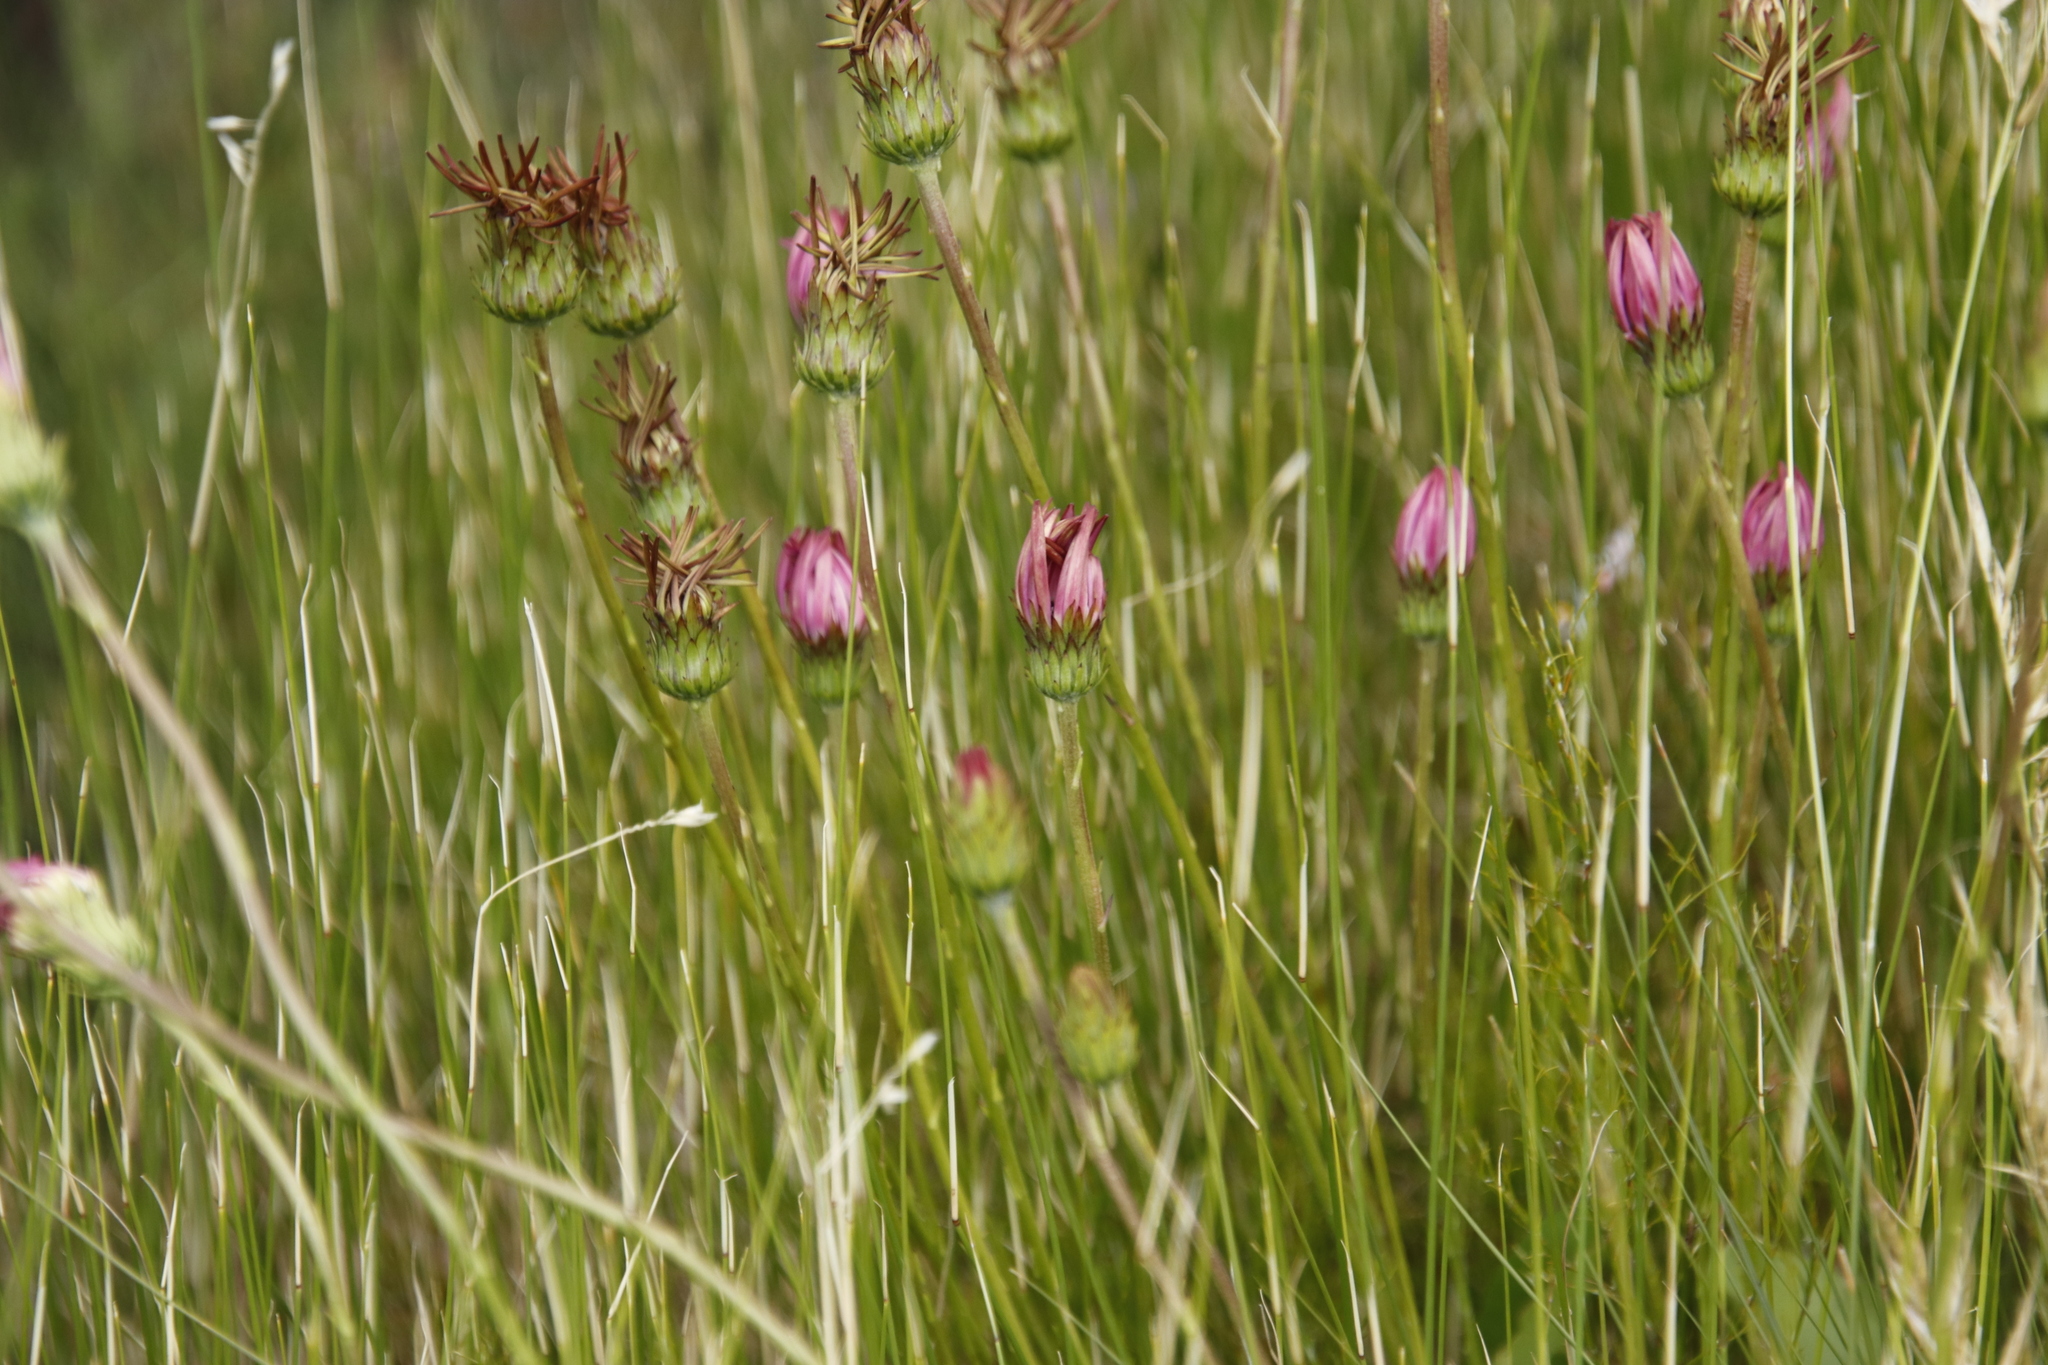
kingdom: Plantae
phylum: Tracheophyta
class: Magnoliopsida
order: Asterales
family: Asteraceae
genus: Gerbera
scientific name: Gerbera crocea
